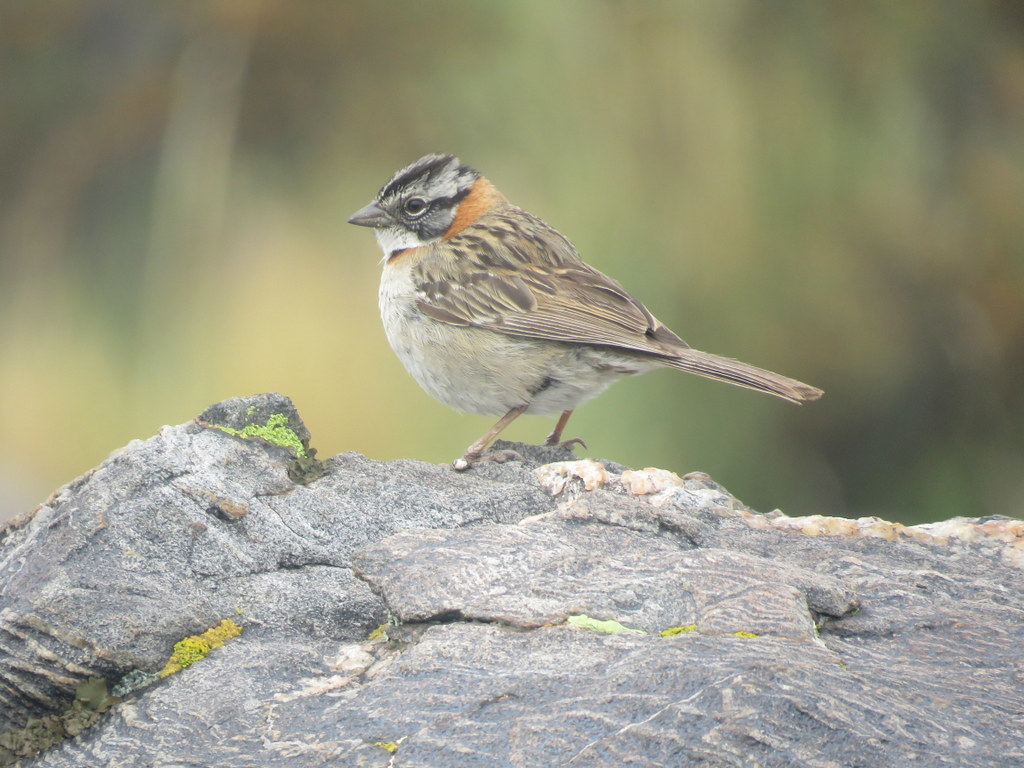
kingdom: Animalia
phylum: Chordata
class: Aves
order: Passeriformes
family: Passerellidae
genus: Zonotrichia
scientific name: Zonotrichia capensis
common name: Rufous-collared sparrow
